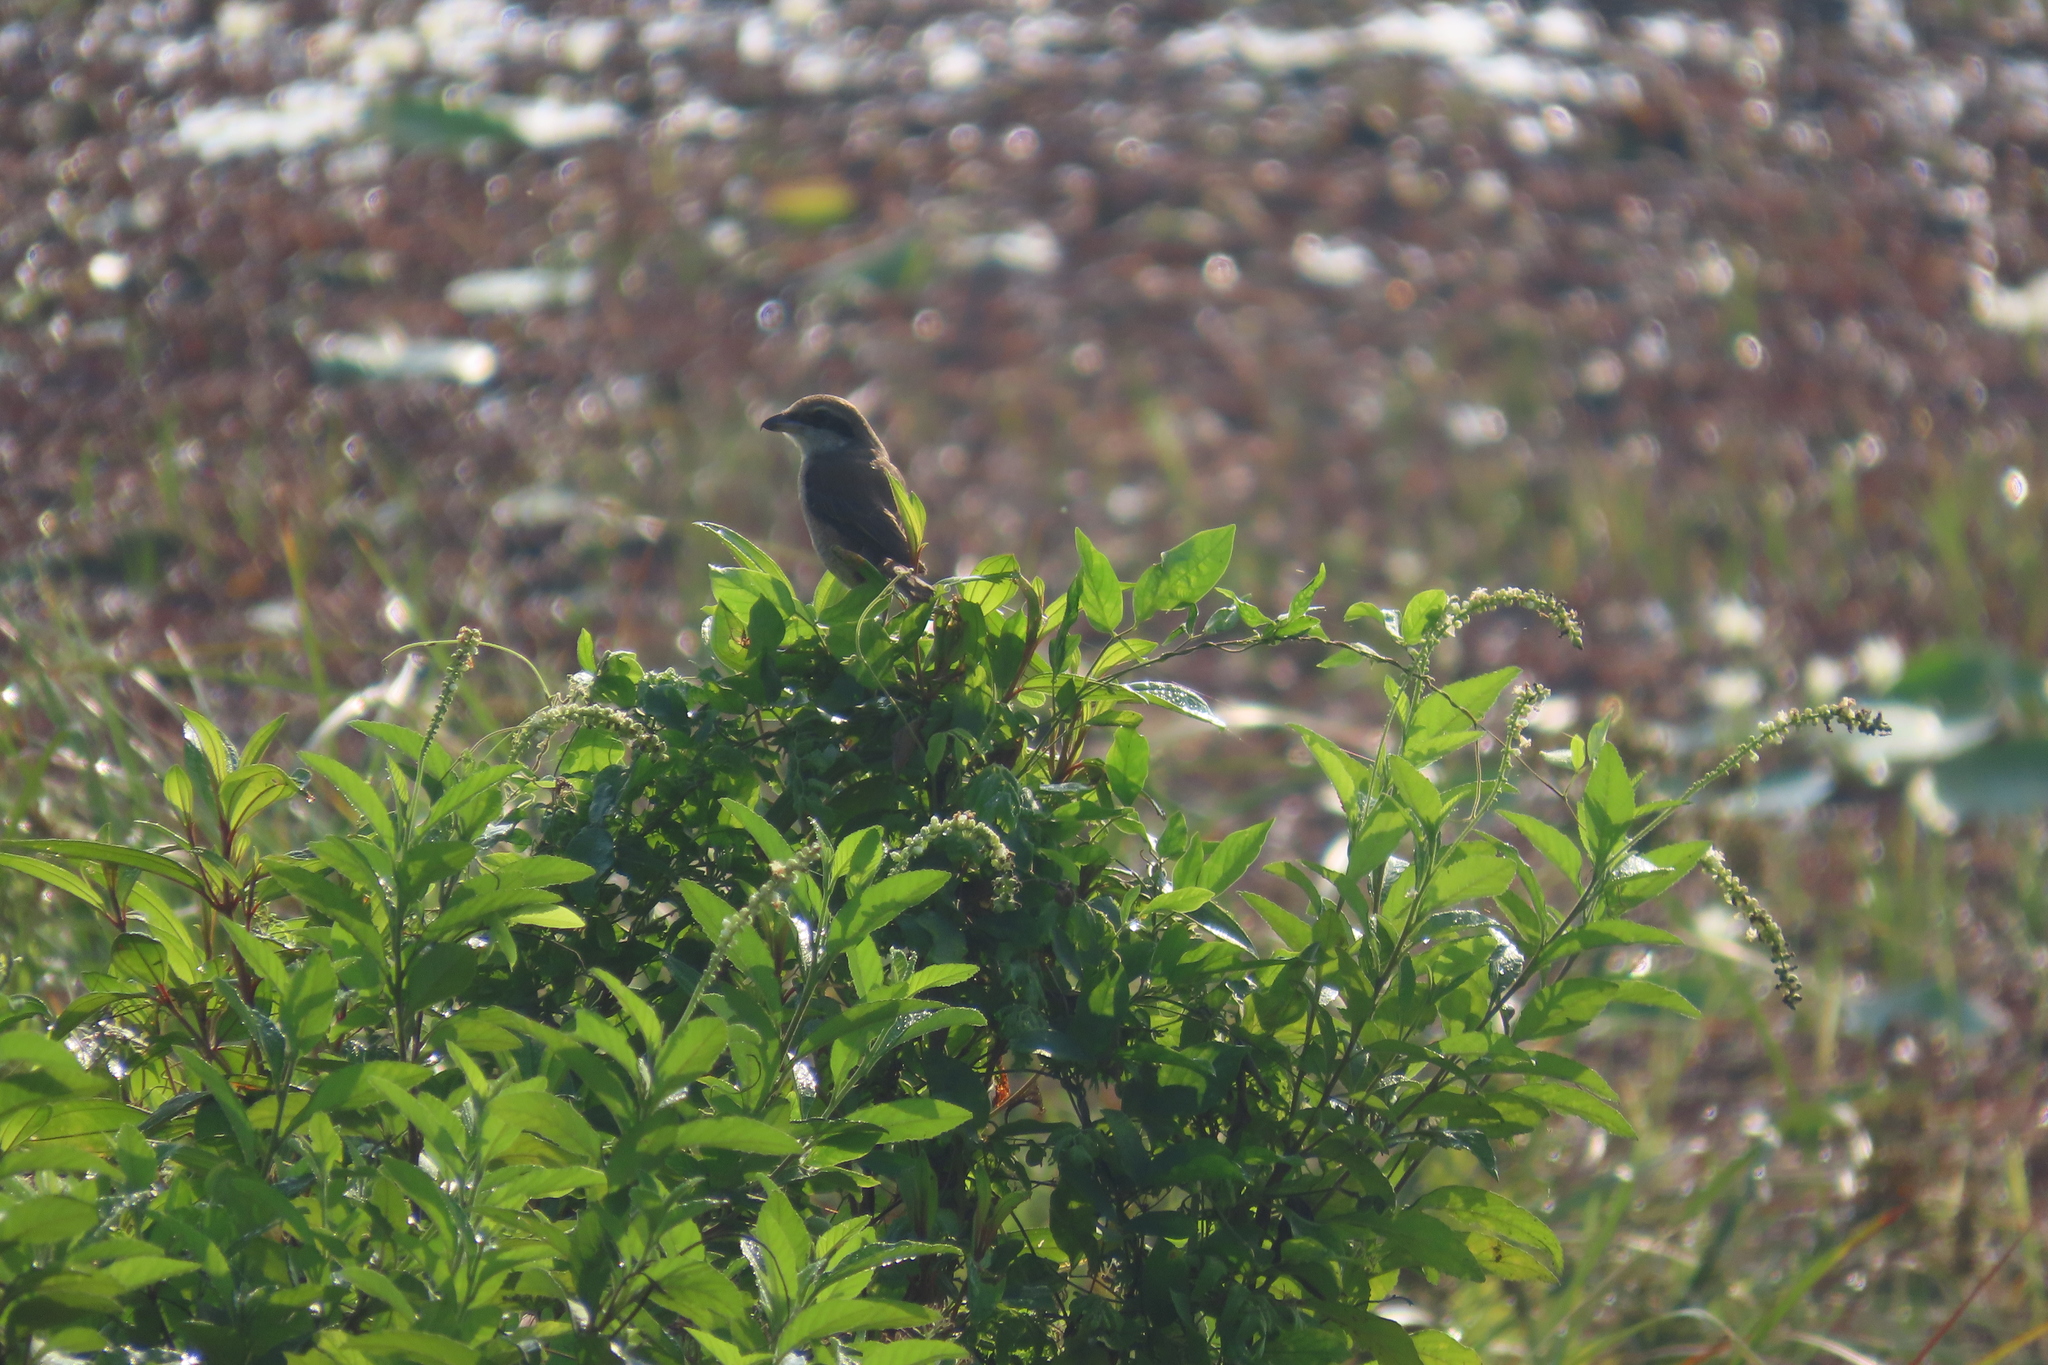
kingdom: Animalia
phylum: Chordata
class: Aves
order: Passeriformes
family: Laniidae
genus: Lanius
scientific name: Lanius cristatus
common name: Brown shrike
